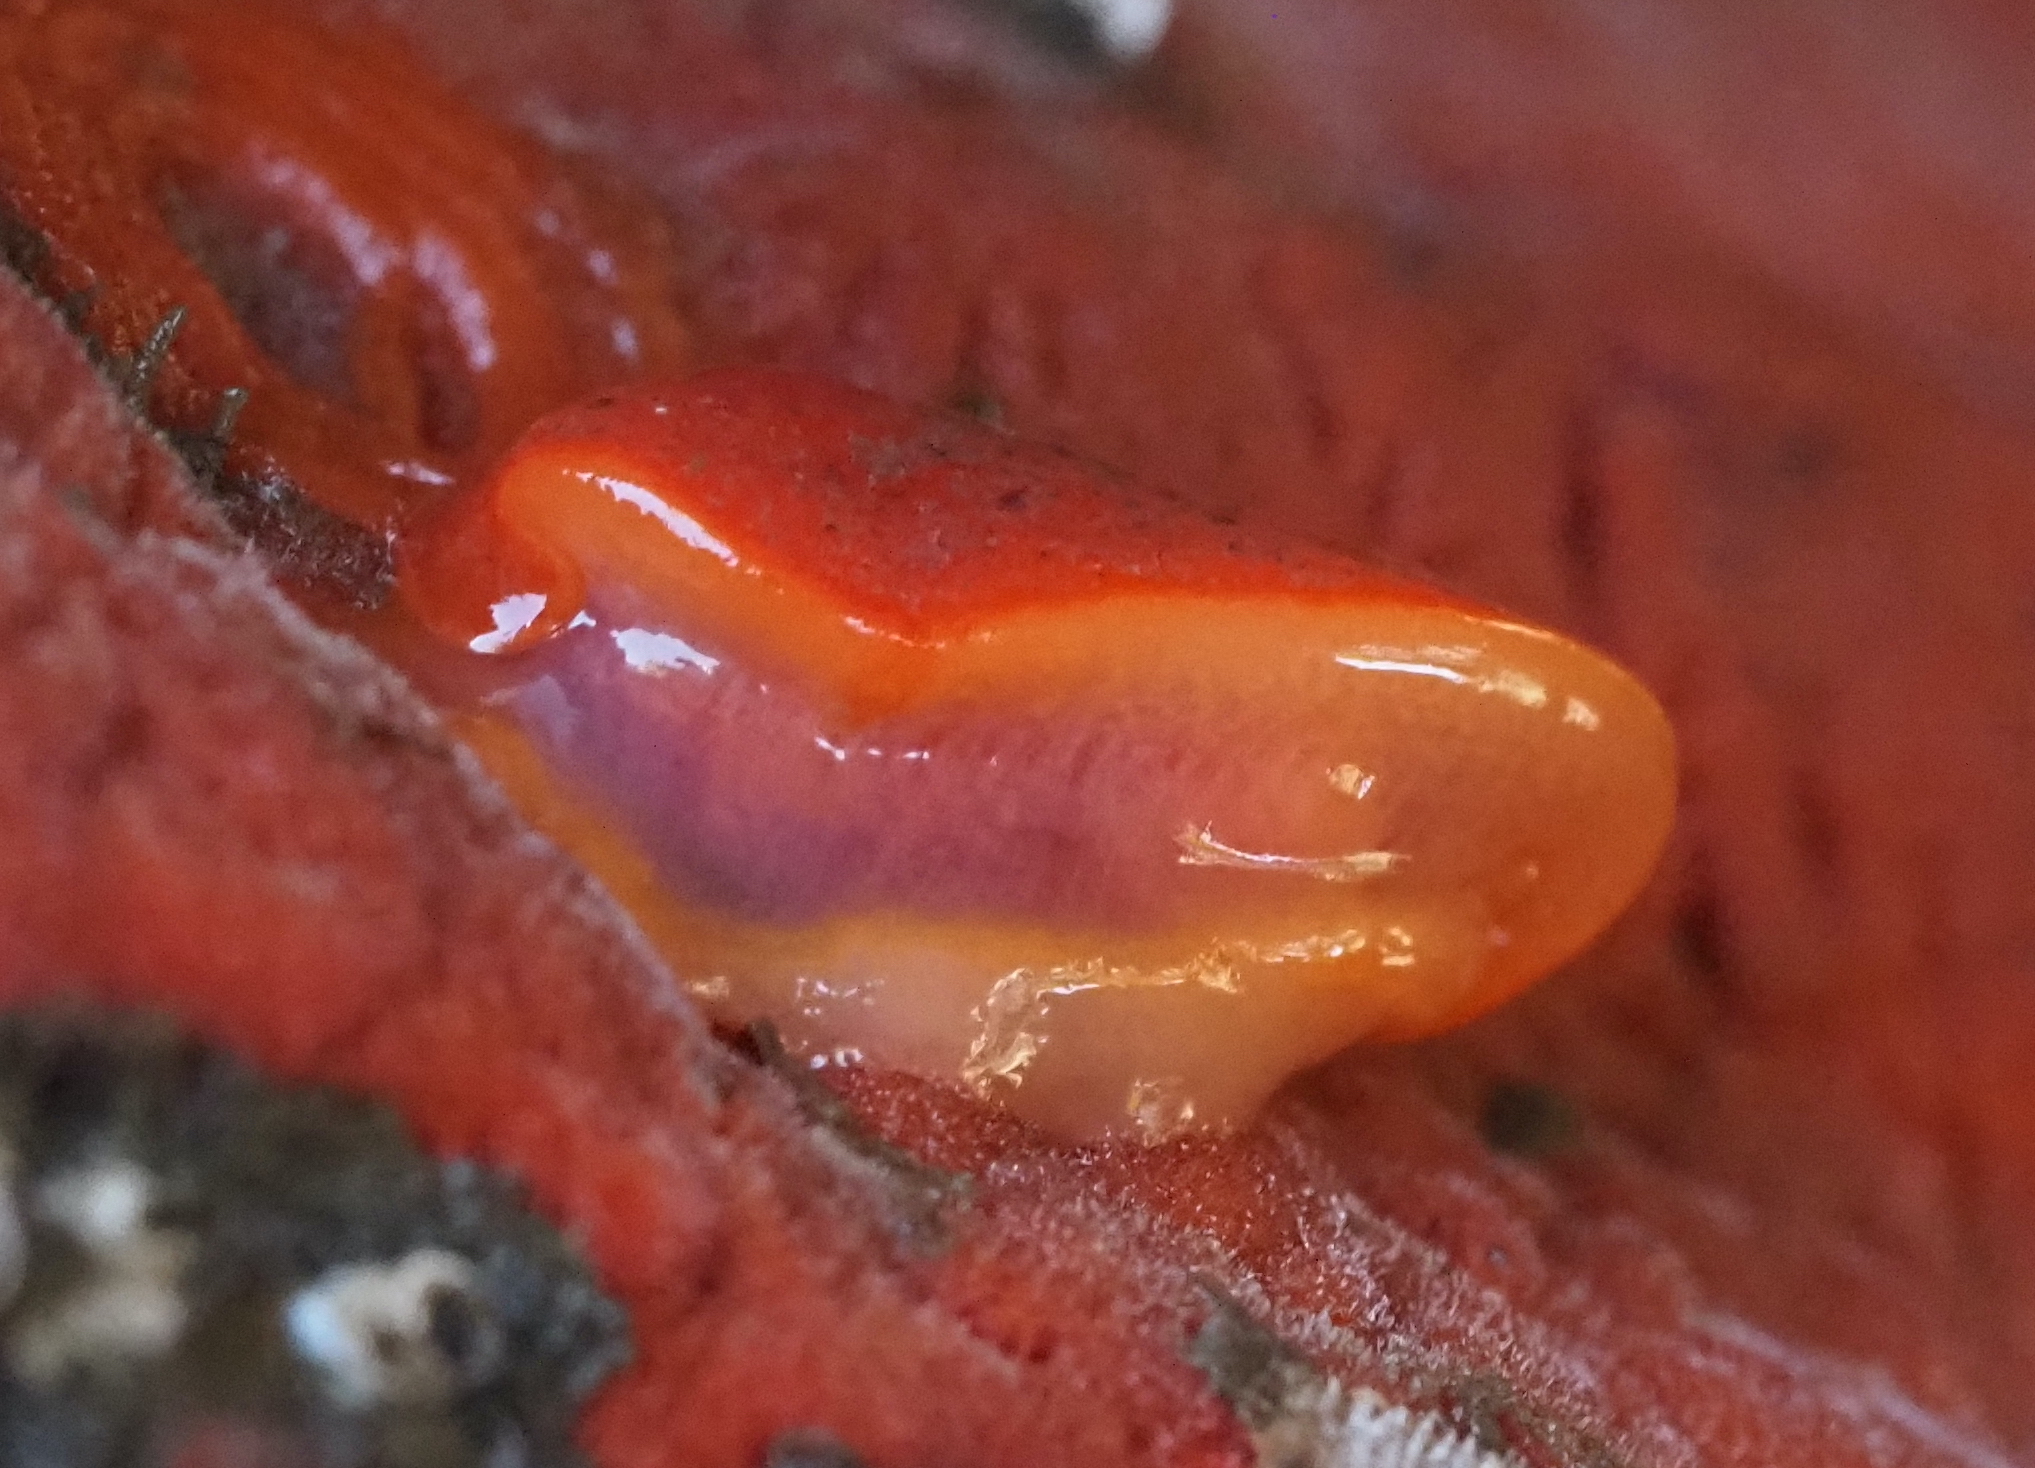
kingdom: Animalia
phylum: Mollusca
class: Gastropoda
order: Nudibranchia
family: Discodorididae
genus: Rostanga
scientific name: Rostanga pulchra
